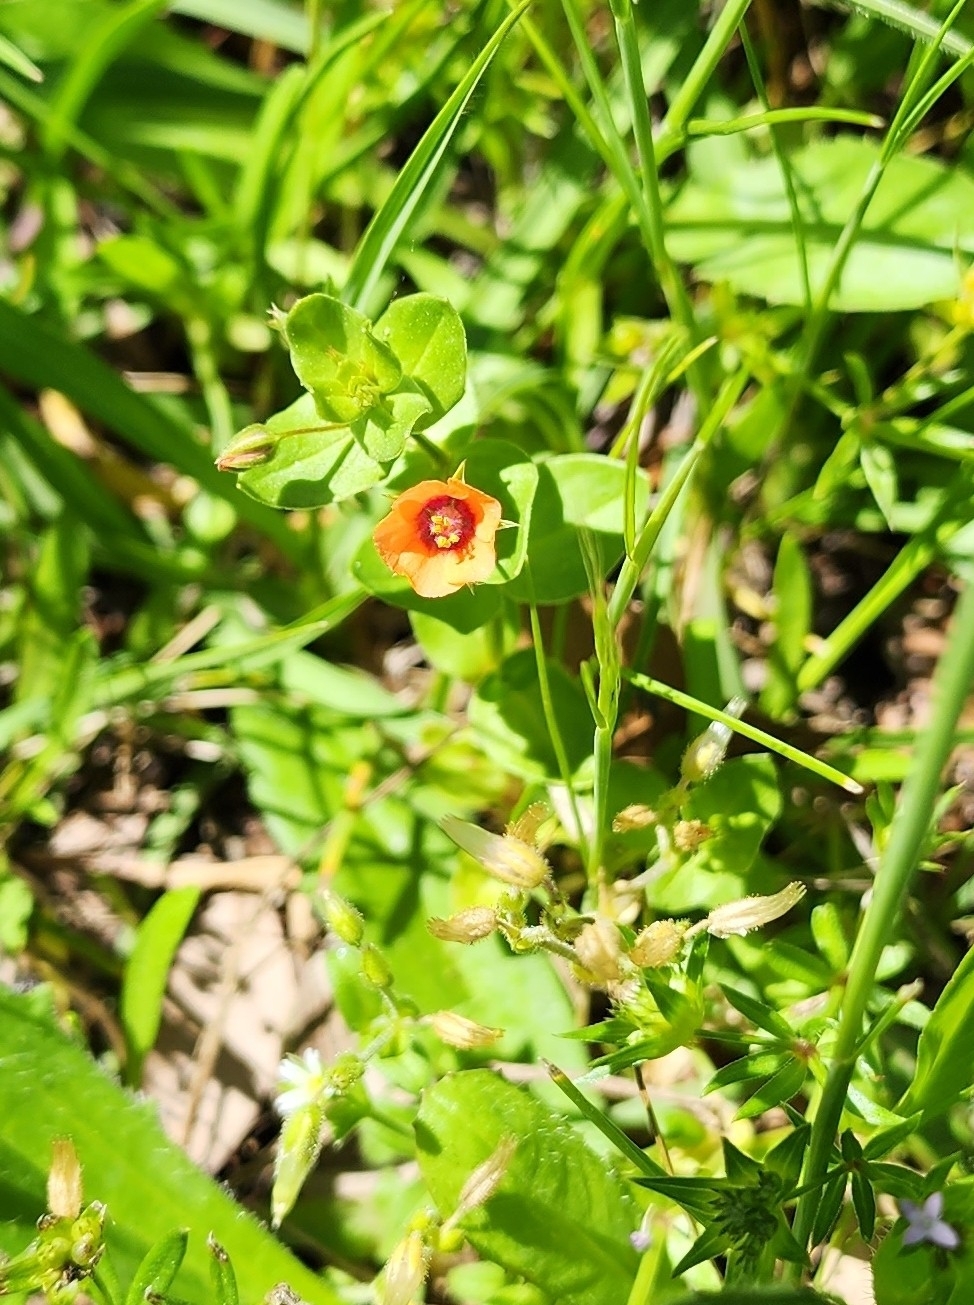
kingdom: Plantae
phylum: Tracheophyta
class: Magnoliopsida
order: Ericales
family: Primulaceae
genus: Lysimachia
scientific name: Lysimachia arvensis
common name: Scarlet pimpernel
